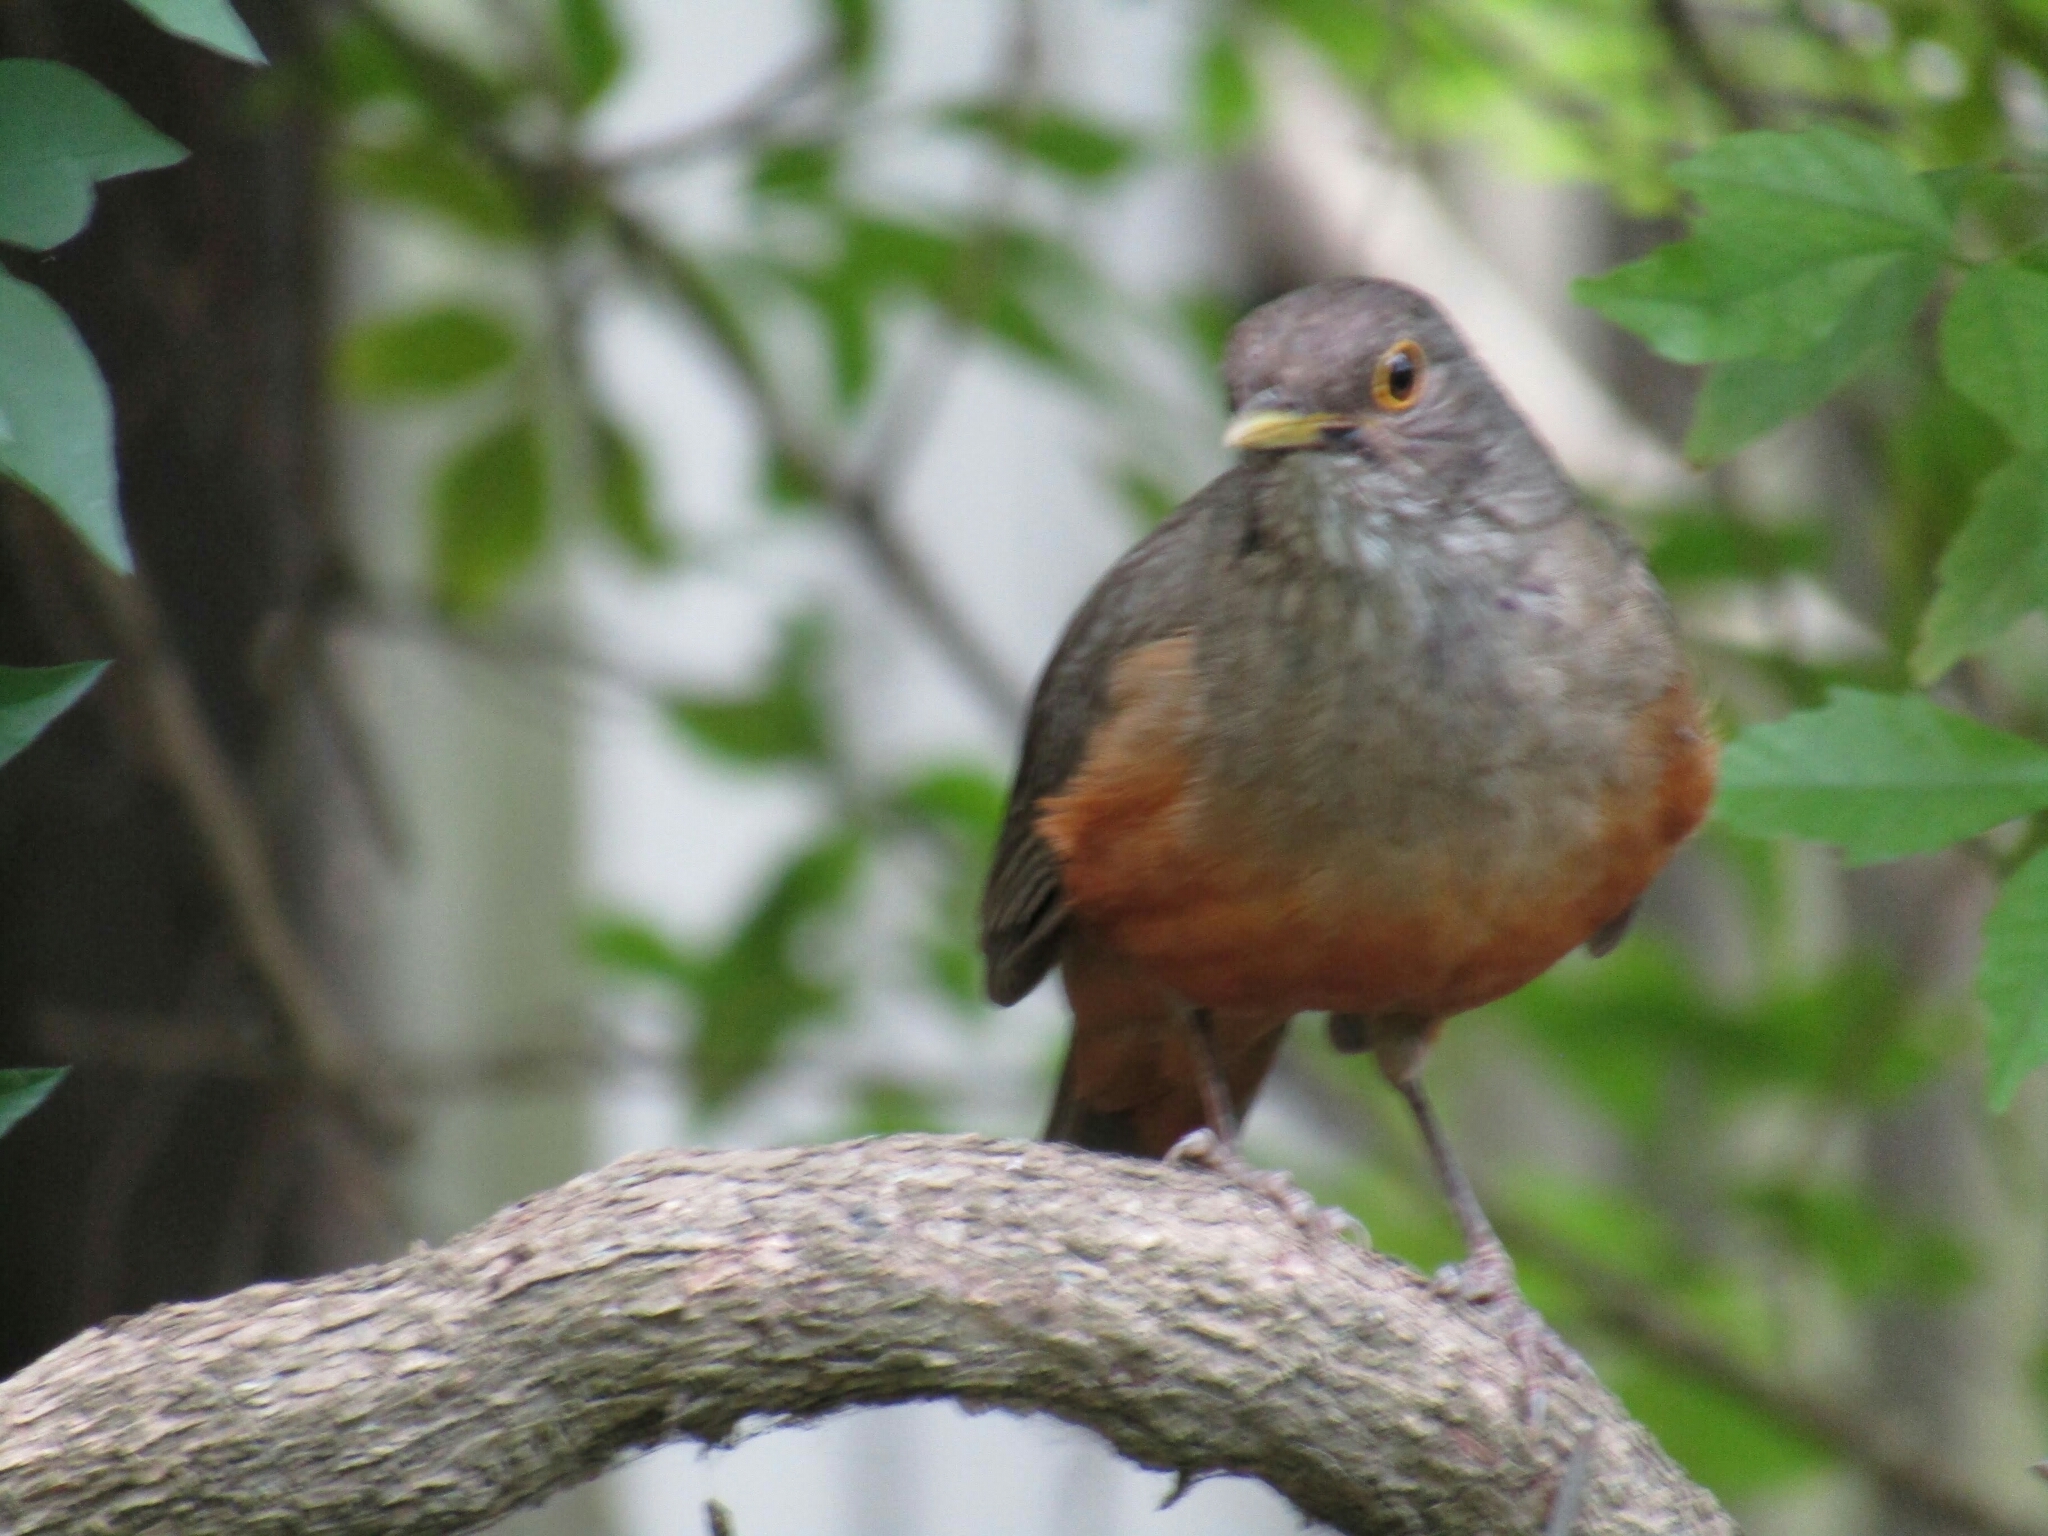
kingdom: Animalia
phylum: Chordata
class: Aves
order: Passeriformes
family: Turdidae
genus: Turdus
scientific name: Turdus rufiventris
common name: Rufous-bellied thrush
